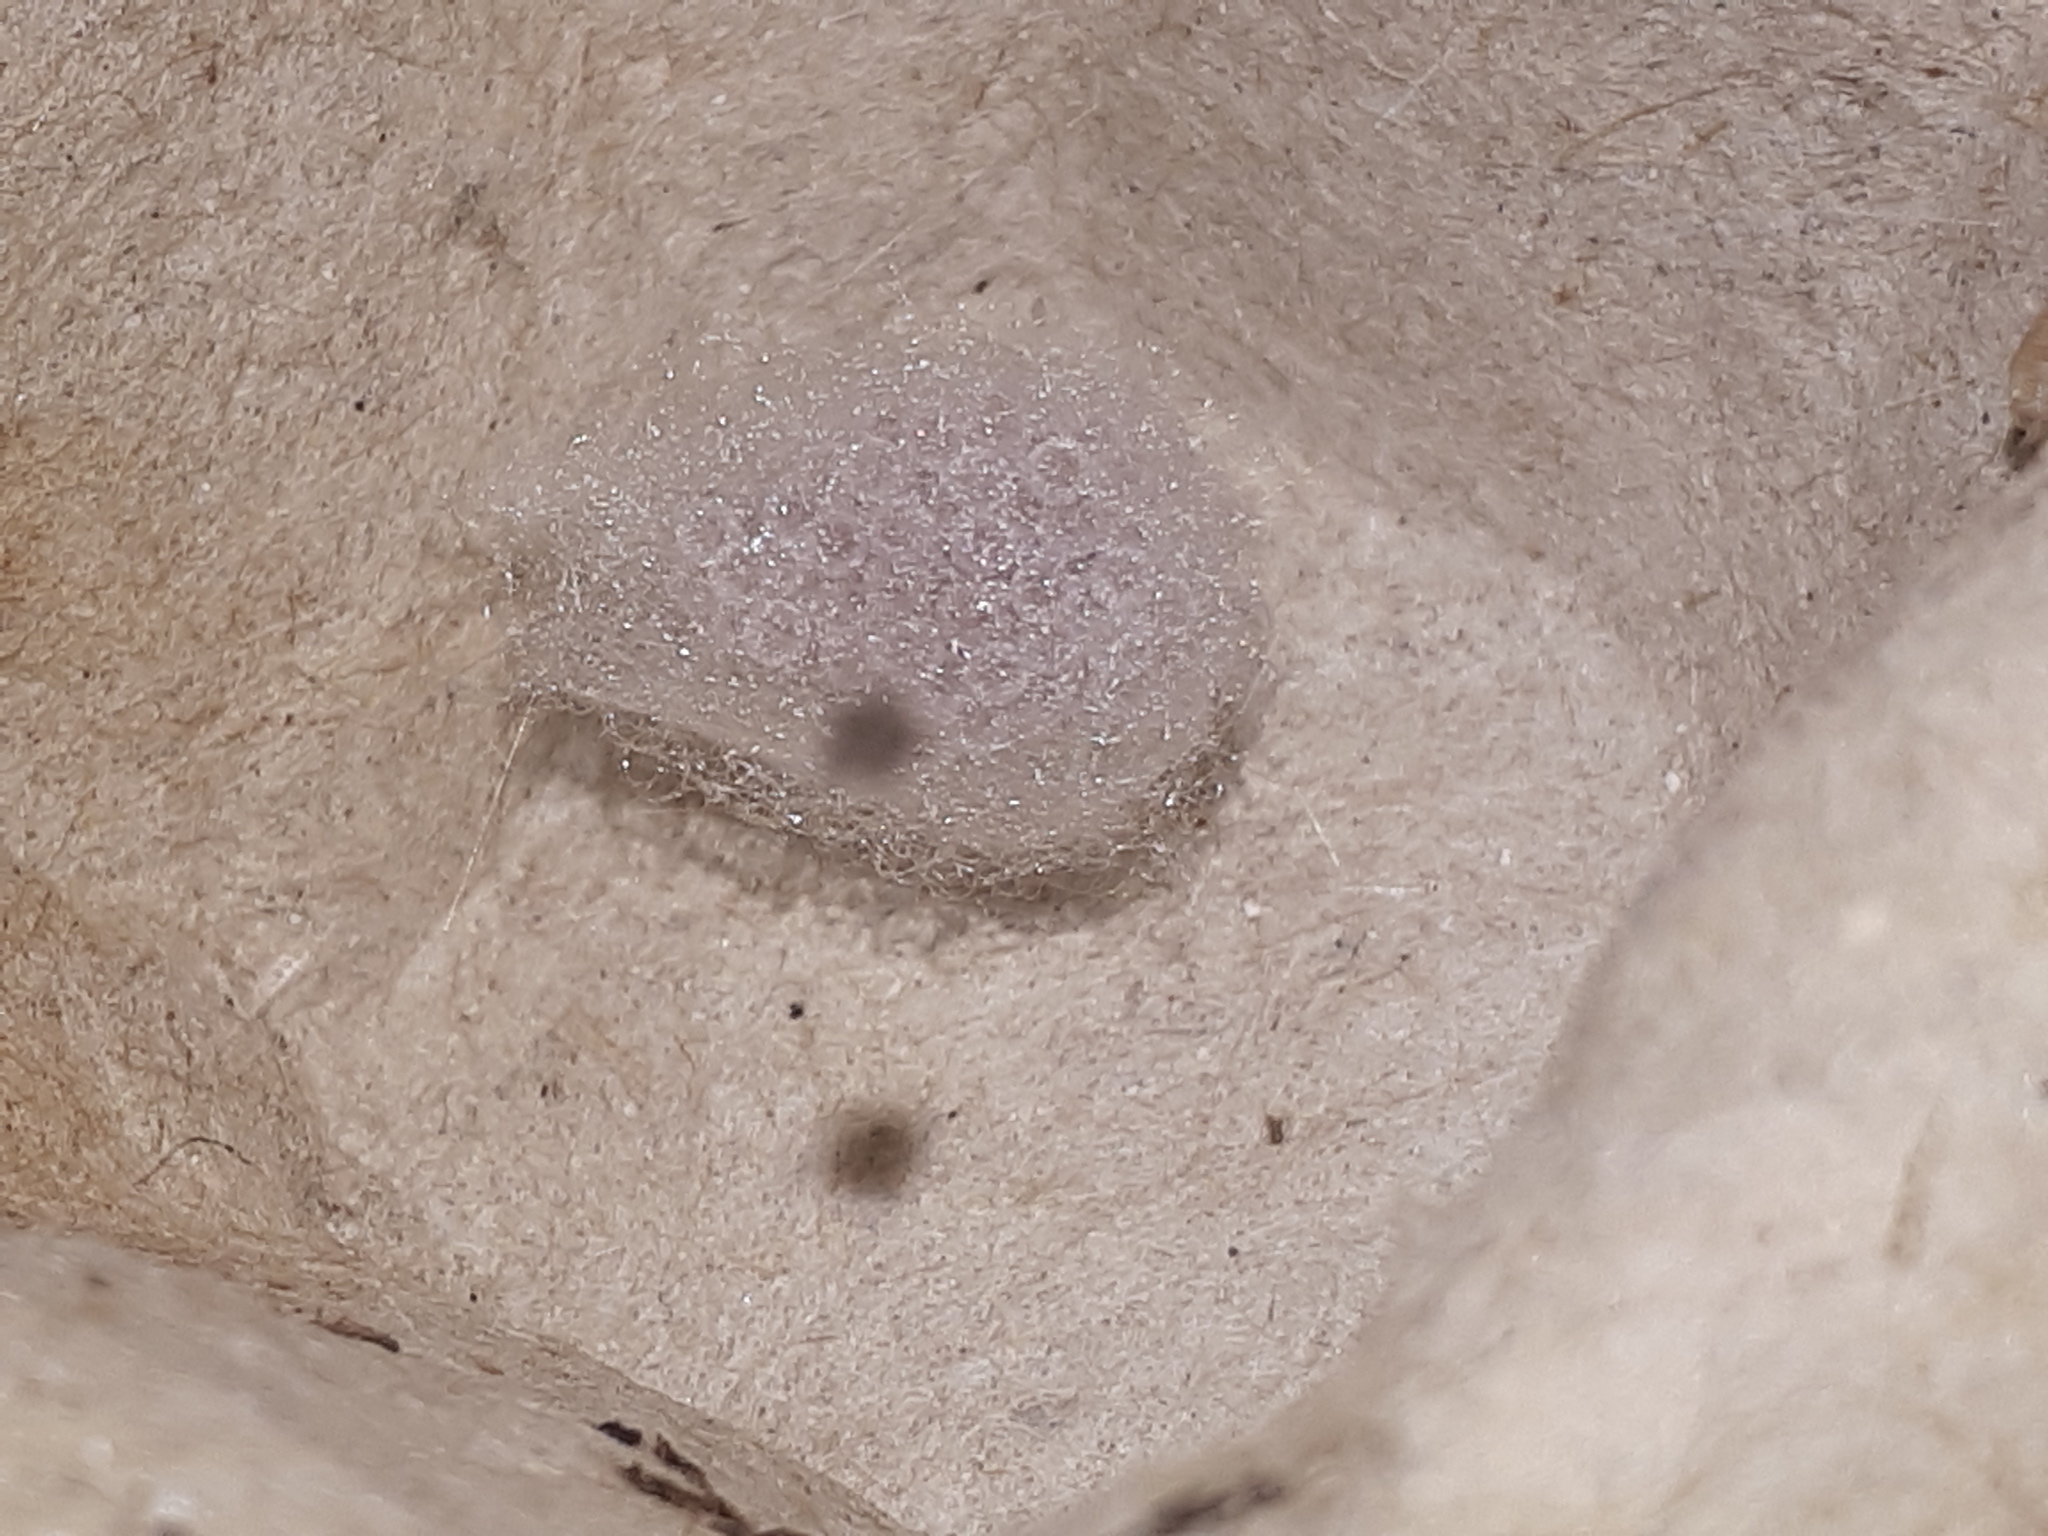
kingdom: Animalia
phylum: Arthropoda
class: Arachnida
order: Araneae
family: Theridiidae
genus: Steatoda
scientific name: Steatoda triangulosa
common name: Triangulate bud spider
